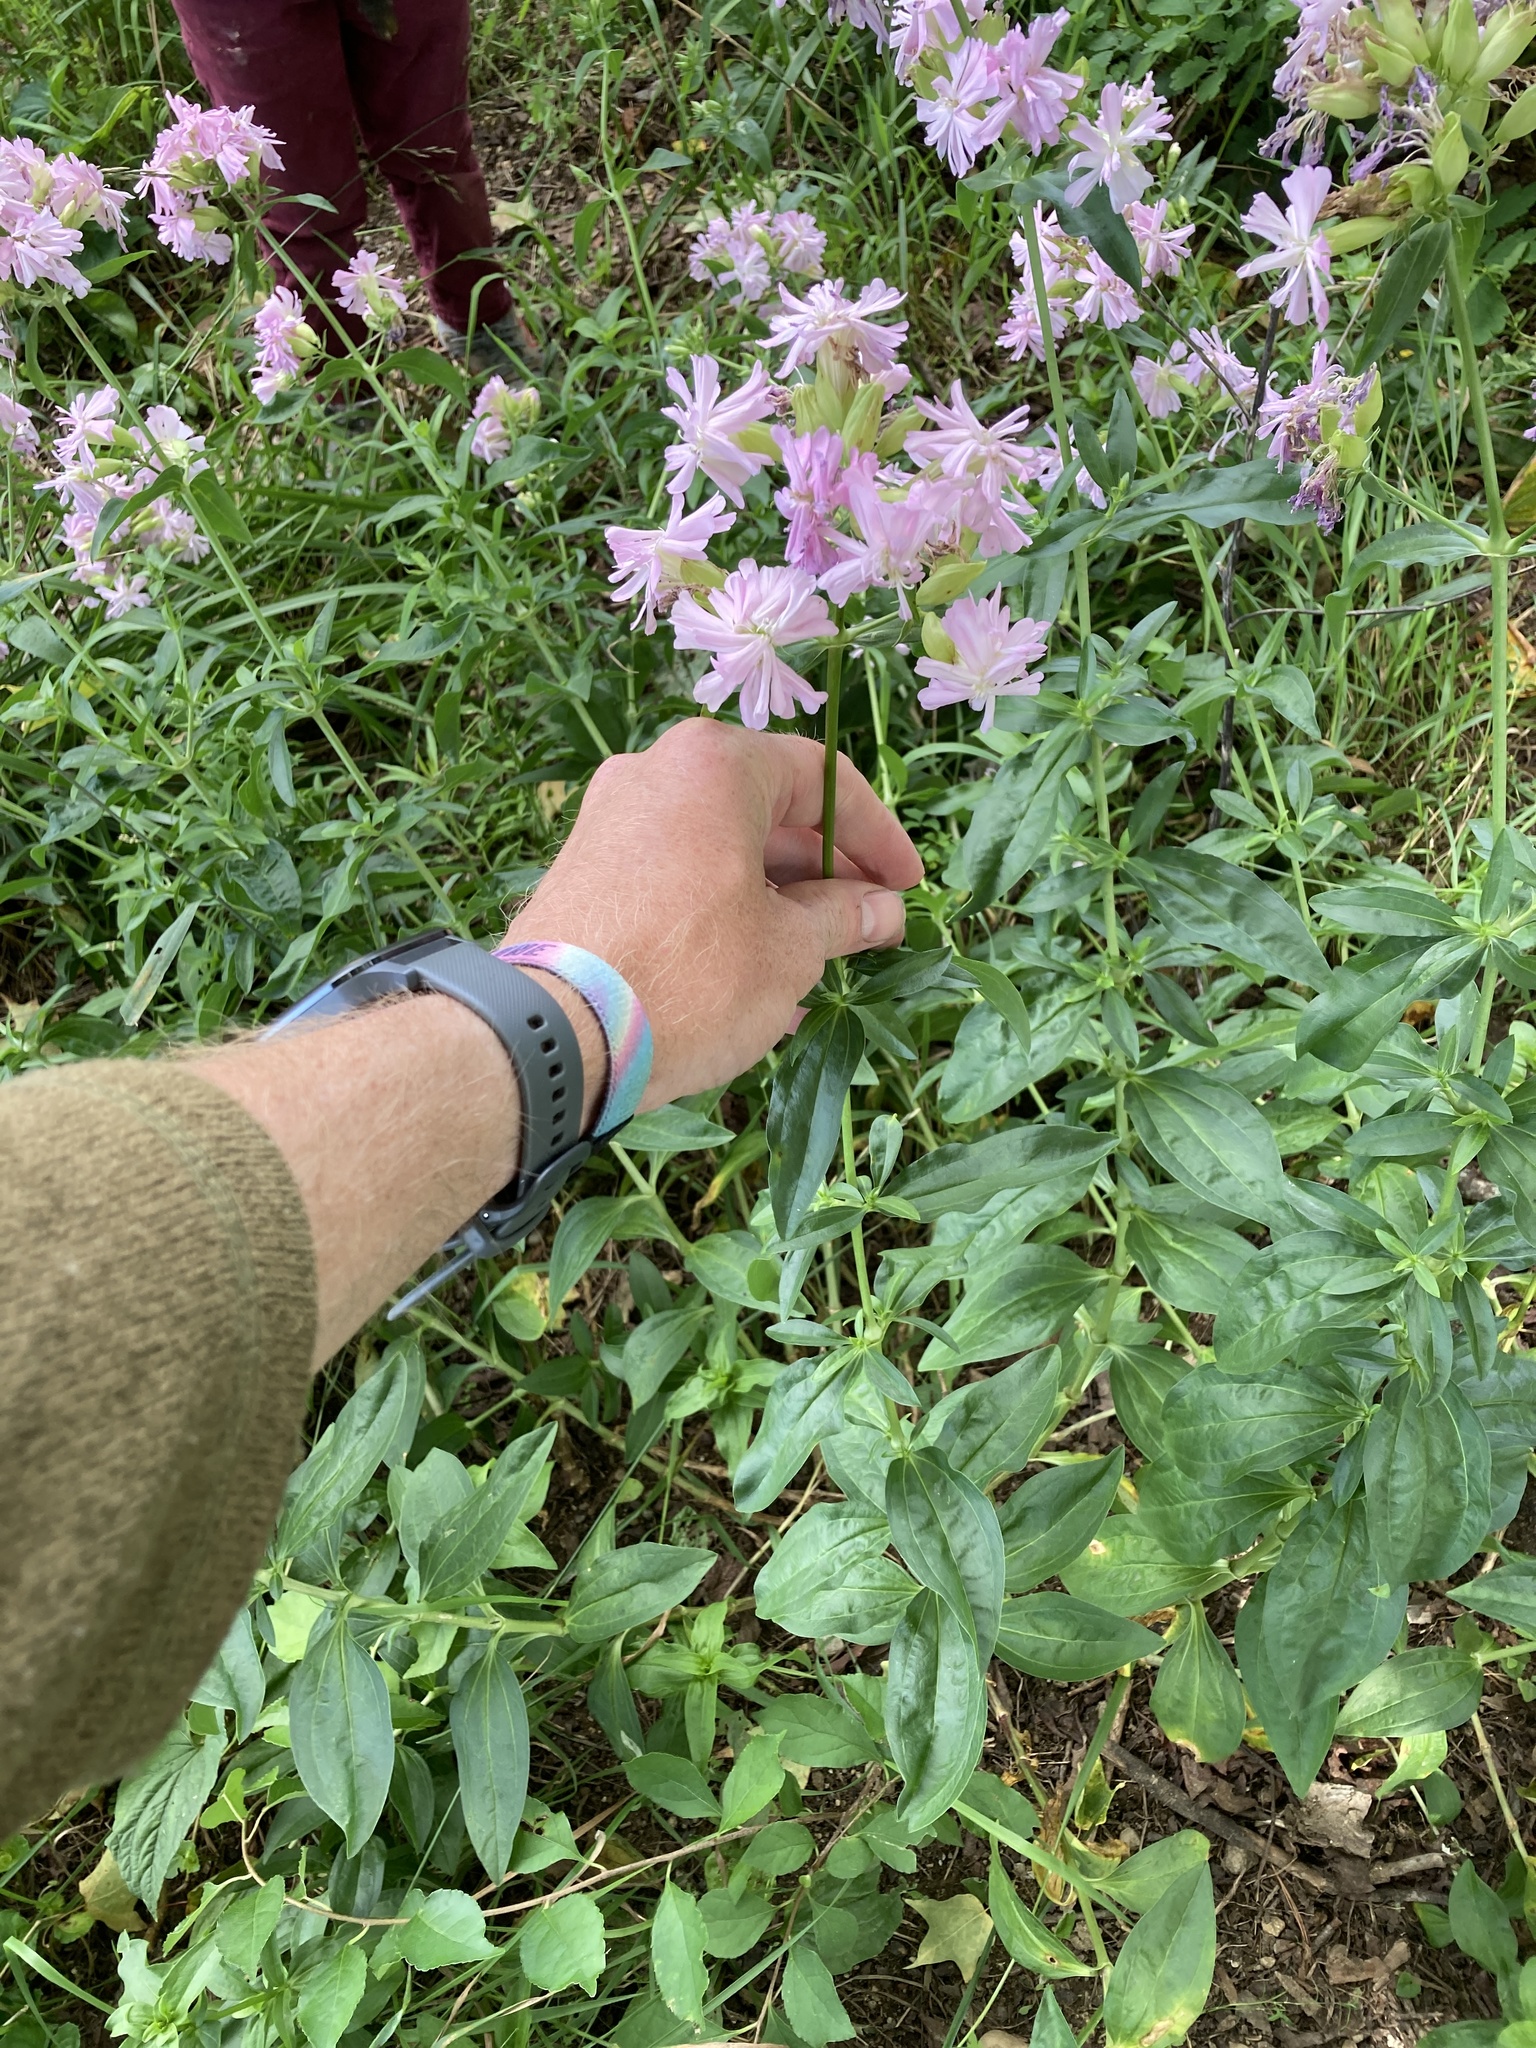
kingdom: Plantae
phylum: Tracheophyta
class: Magnoliopsida
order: Caryophyllales
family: Caryophyllaceae
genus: Saponaria
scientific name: Saponaria officinalis
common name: Soapwort
